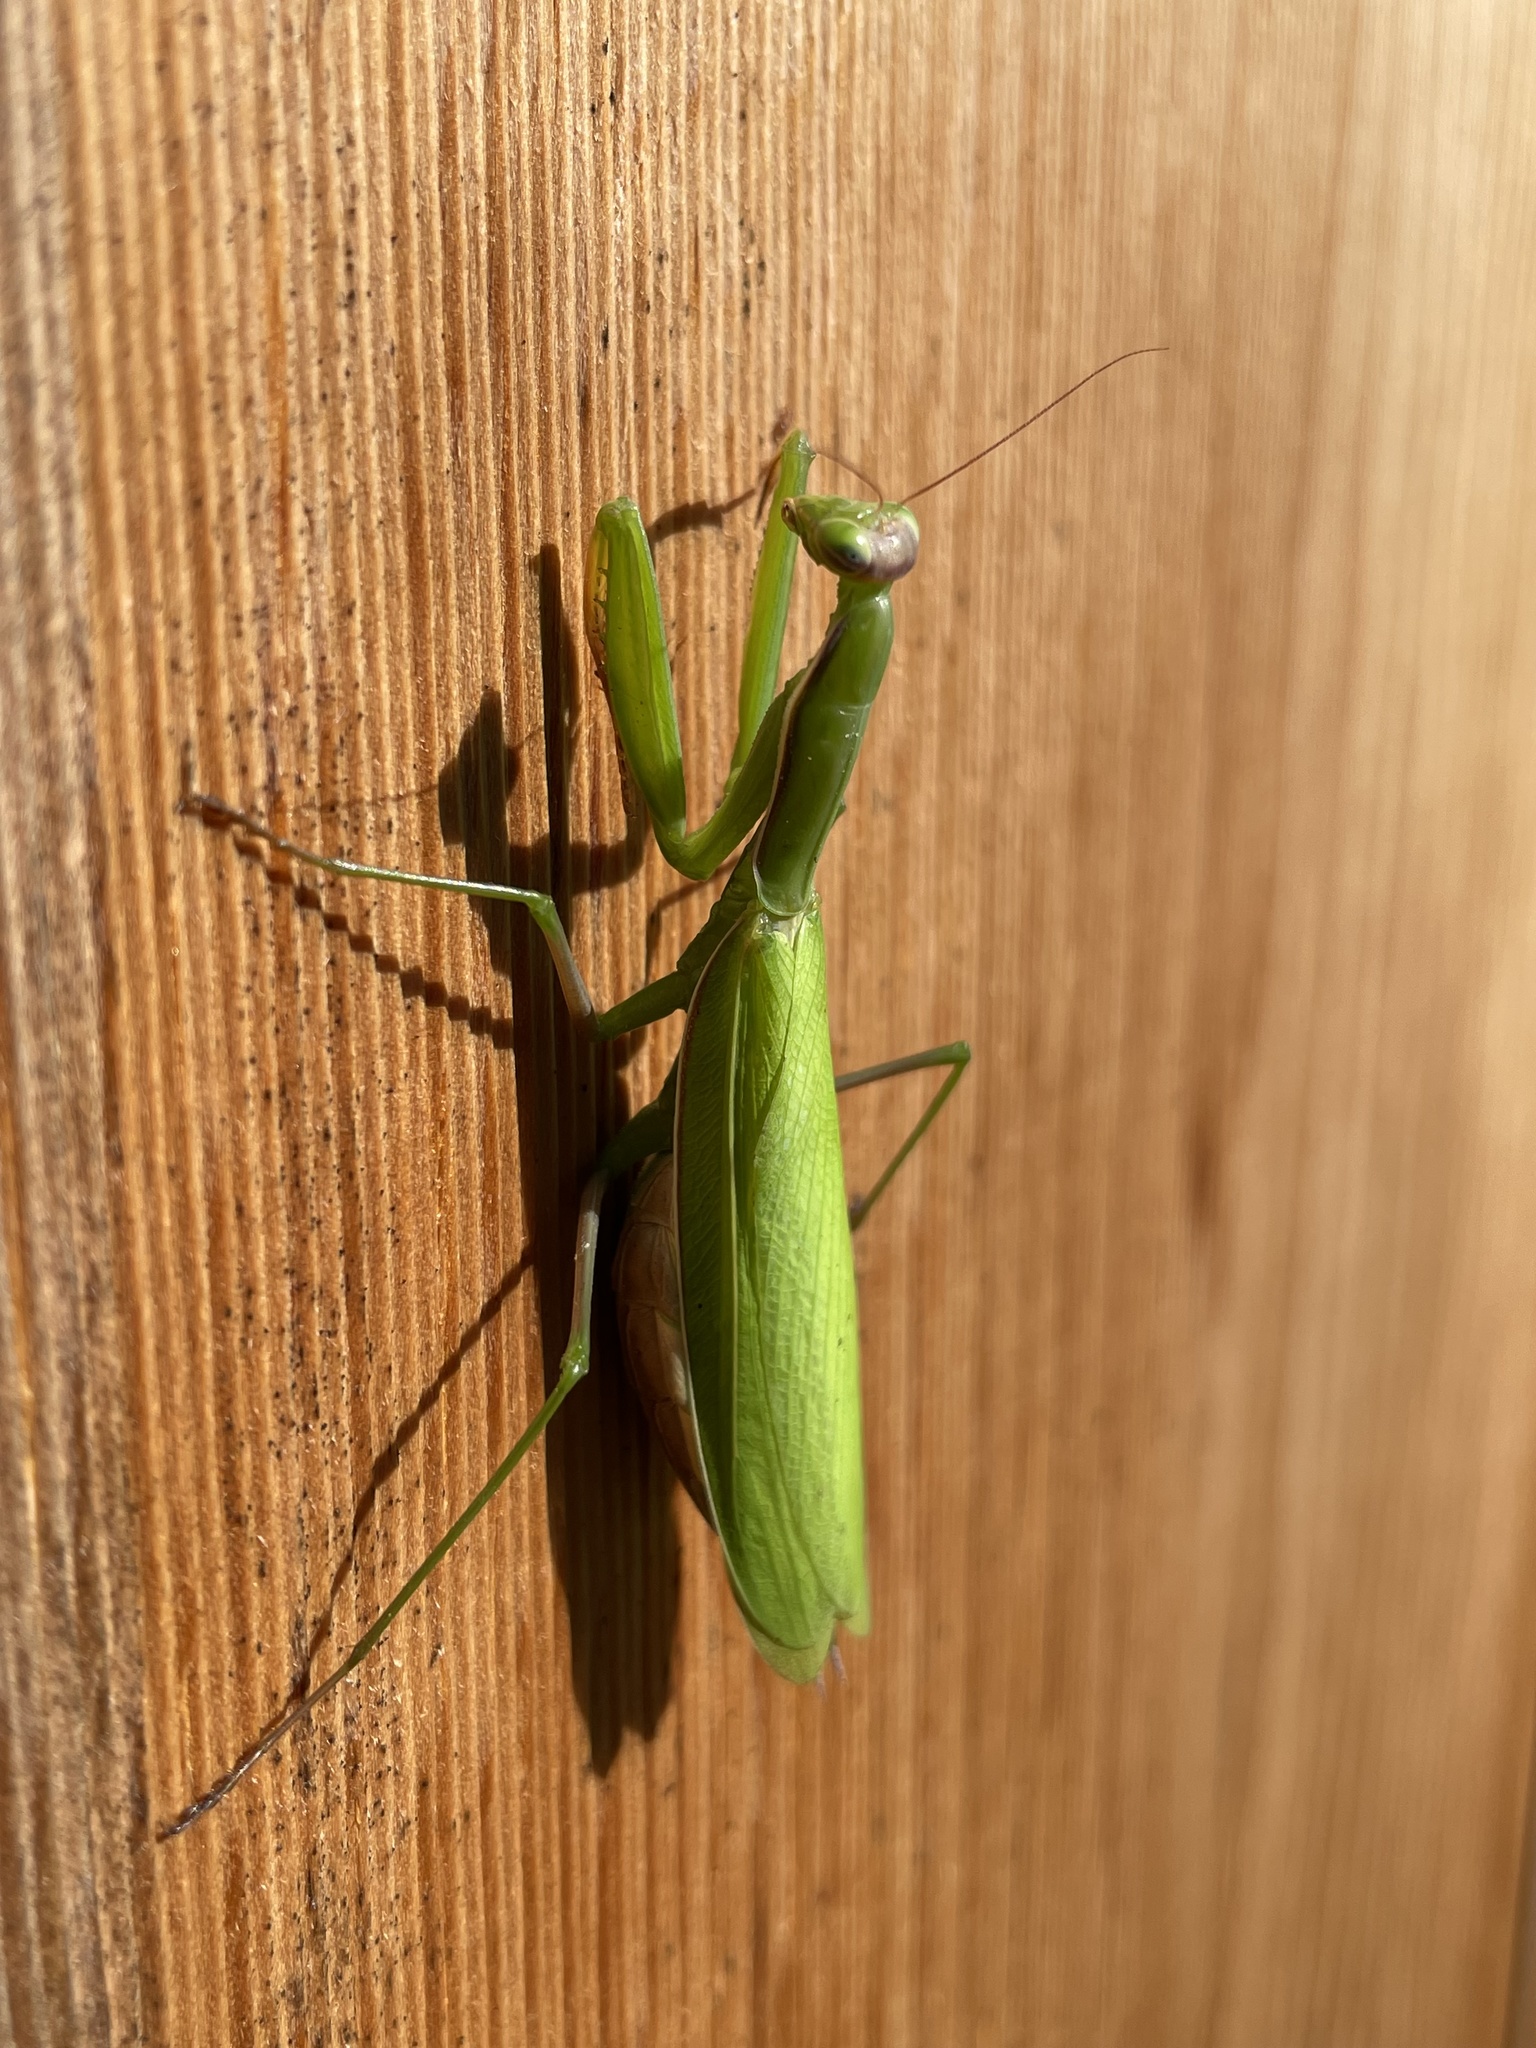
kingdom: Animalia
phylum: Arthropoda
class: Insecta
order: Mantodea
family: Mantidae
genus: Mantis
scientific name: Mantis religiosa
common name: Praying mantis
